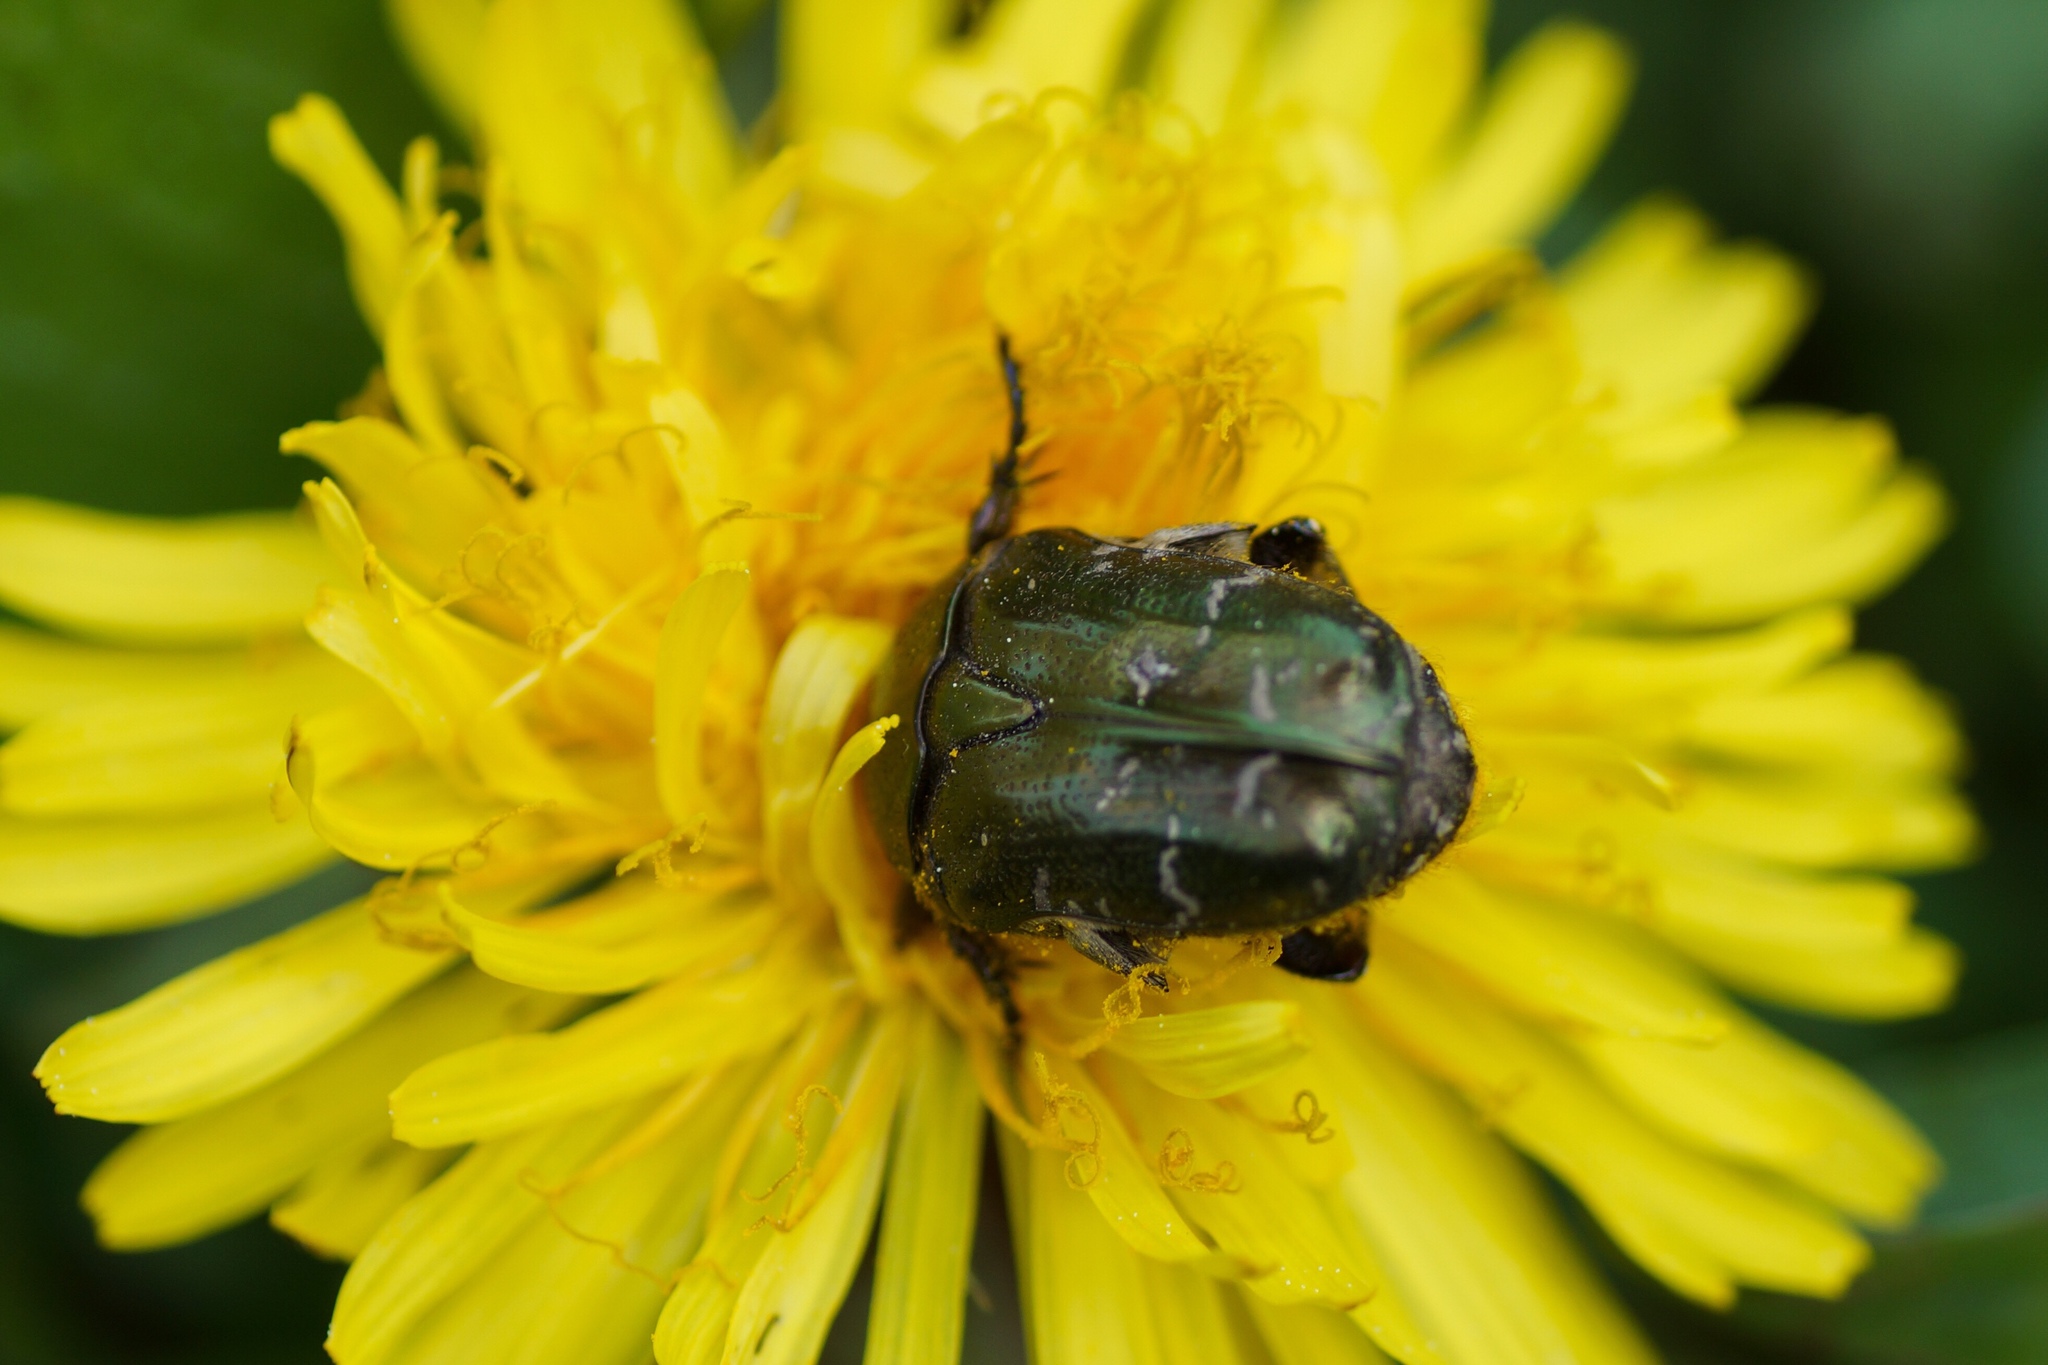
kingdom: Animalia
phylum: Arthropoda
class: Insecta
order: Coleoptera
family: Scarabaeidae
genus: Cetonia
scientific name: Cetonia aurata
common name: Rose chafer
